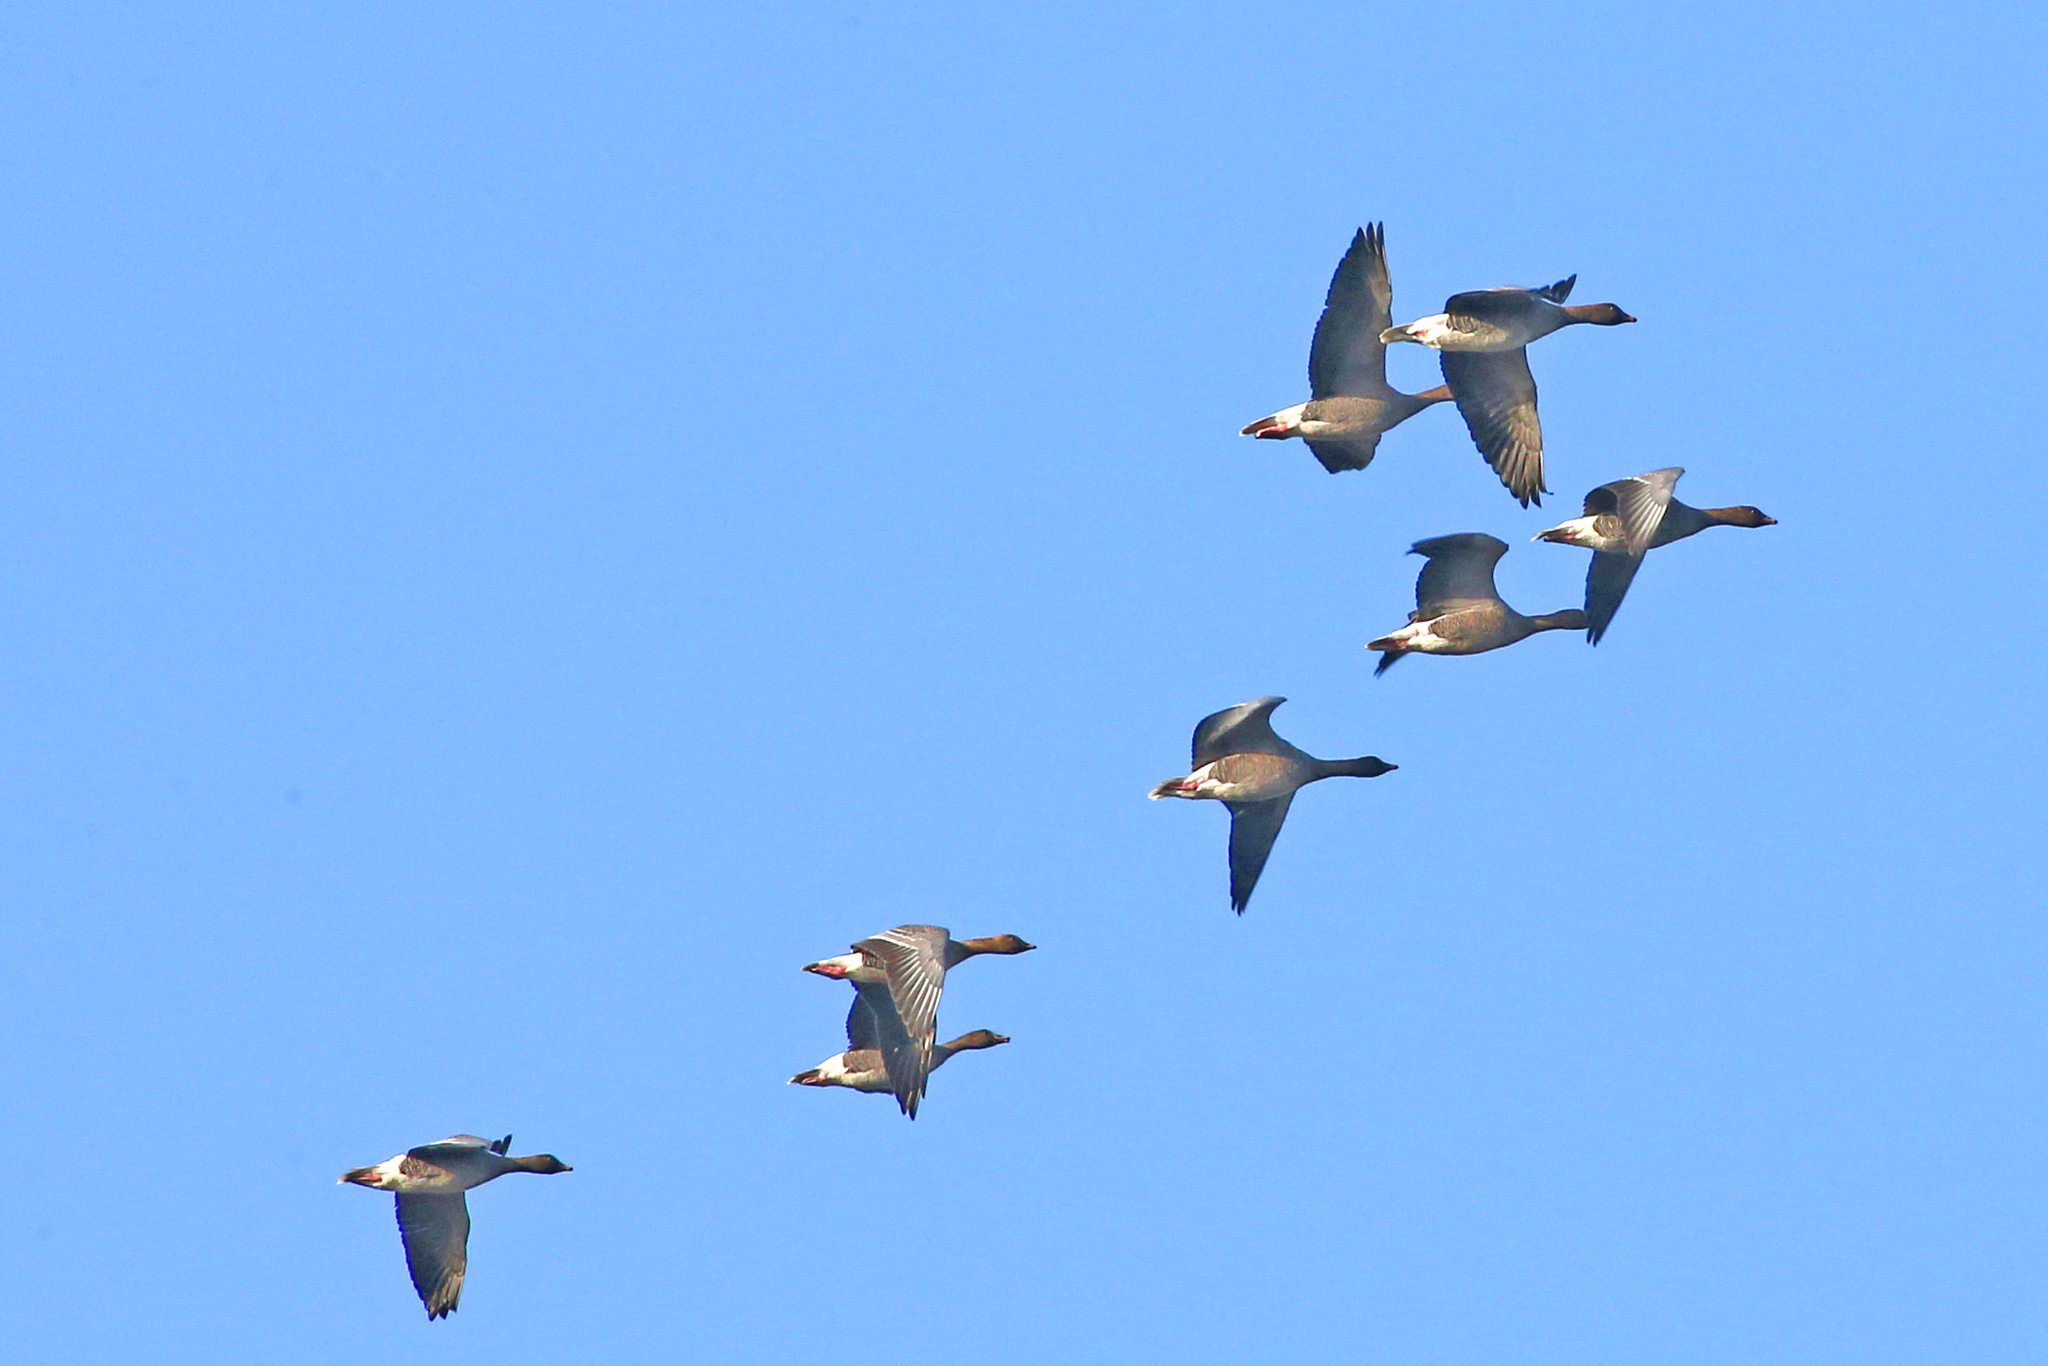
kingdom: Animalia
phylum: Chordata
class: Aves
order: Anseriformes
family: Anatidae
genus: Anser
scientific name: Anser brachyrhynchus
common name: Pink-footed goose
